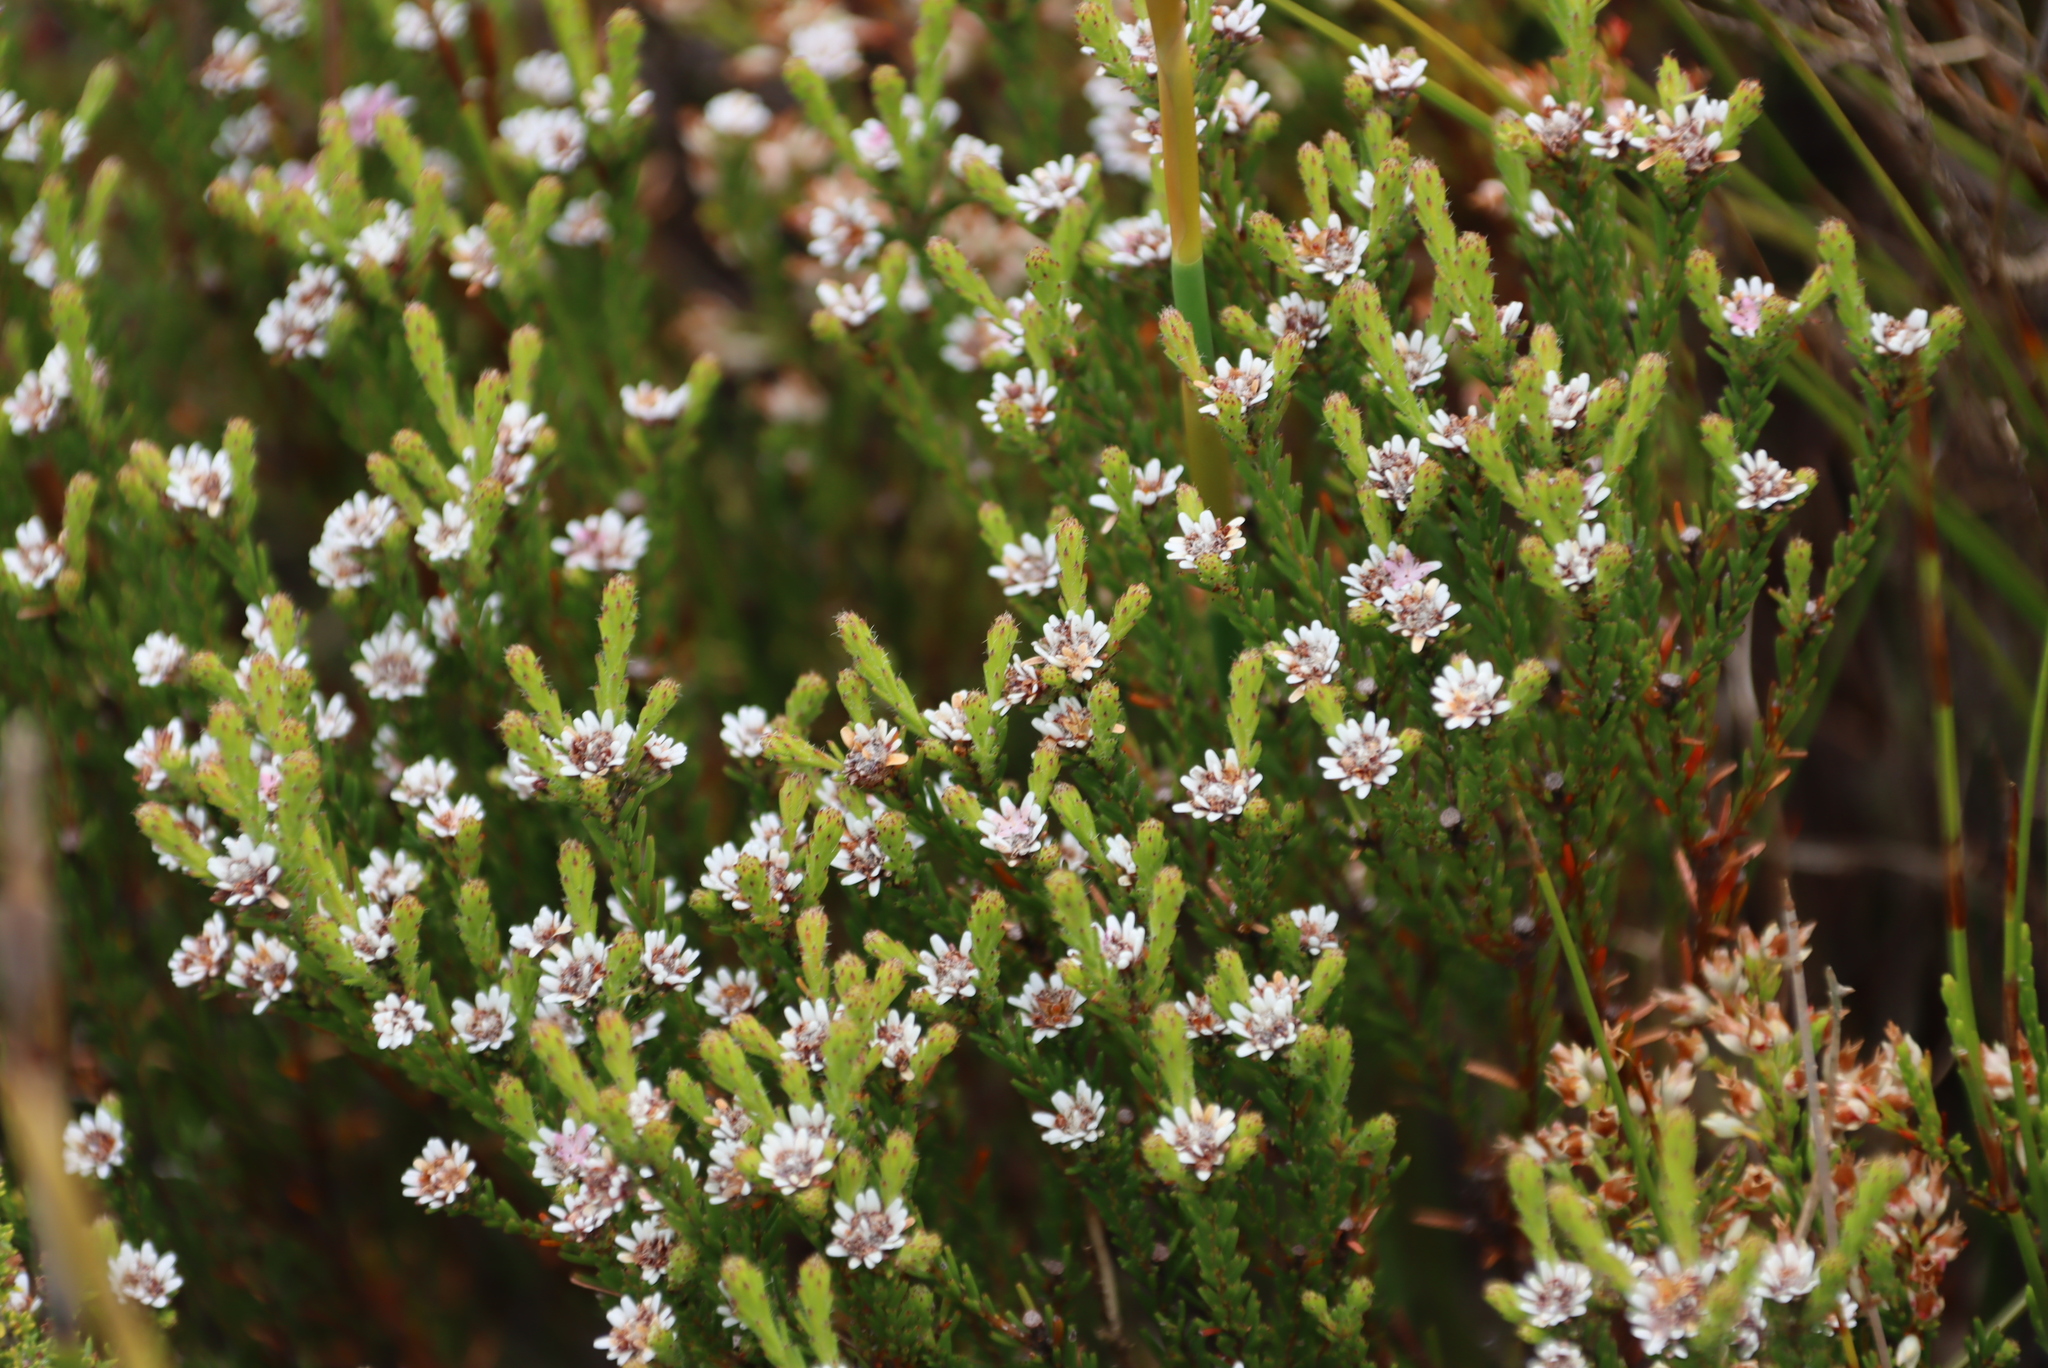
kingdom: Plantae
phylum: Tracheophyta
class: Magnoliopsida
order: Bruniales
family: Bruniaceae
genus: Staavia
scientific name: Staavia radiata
